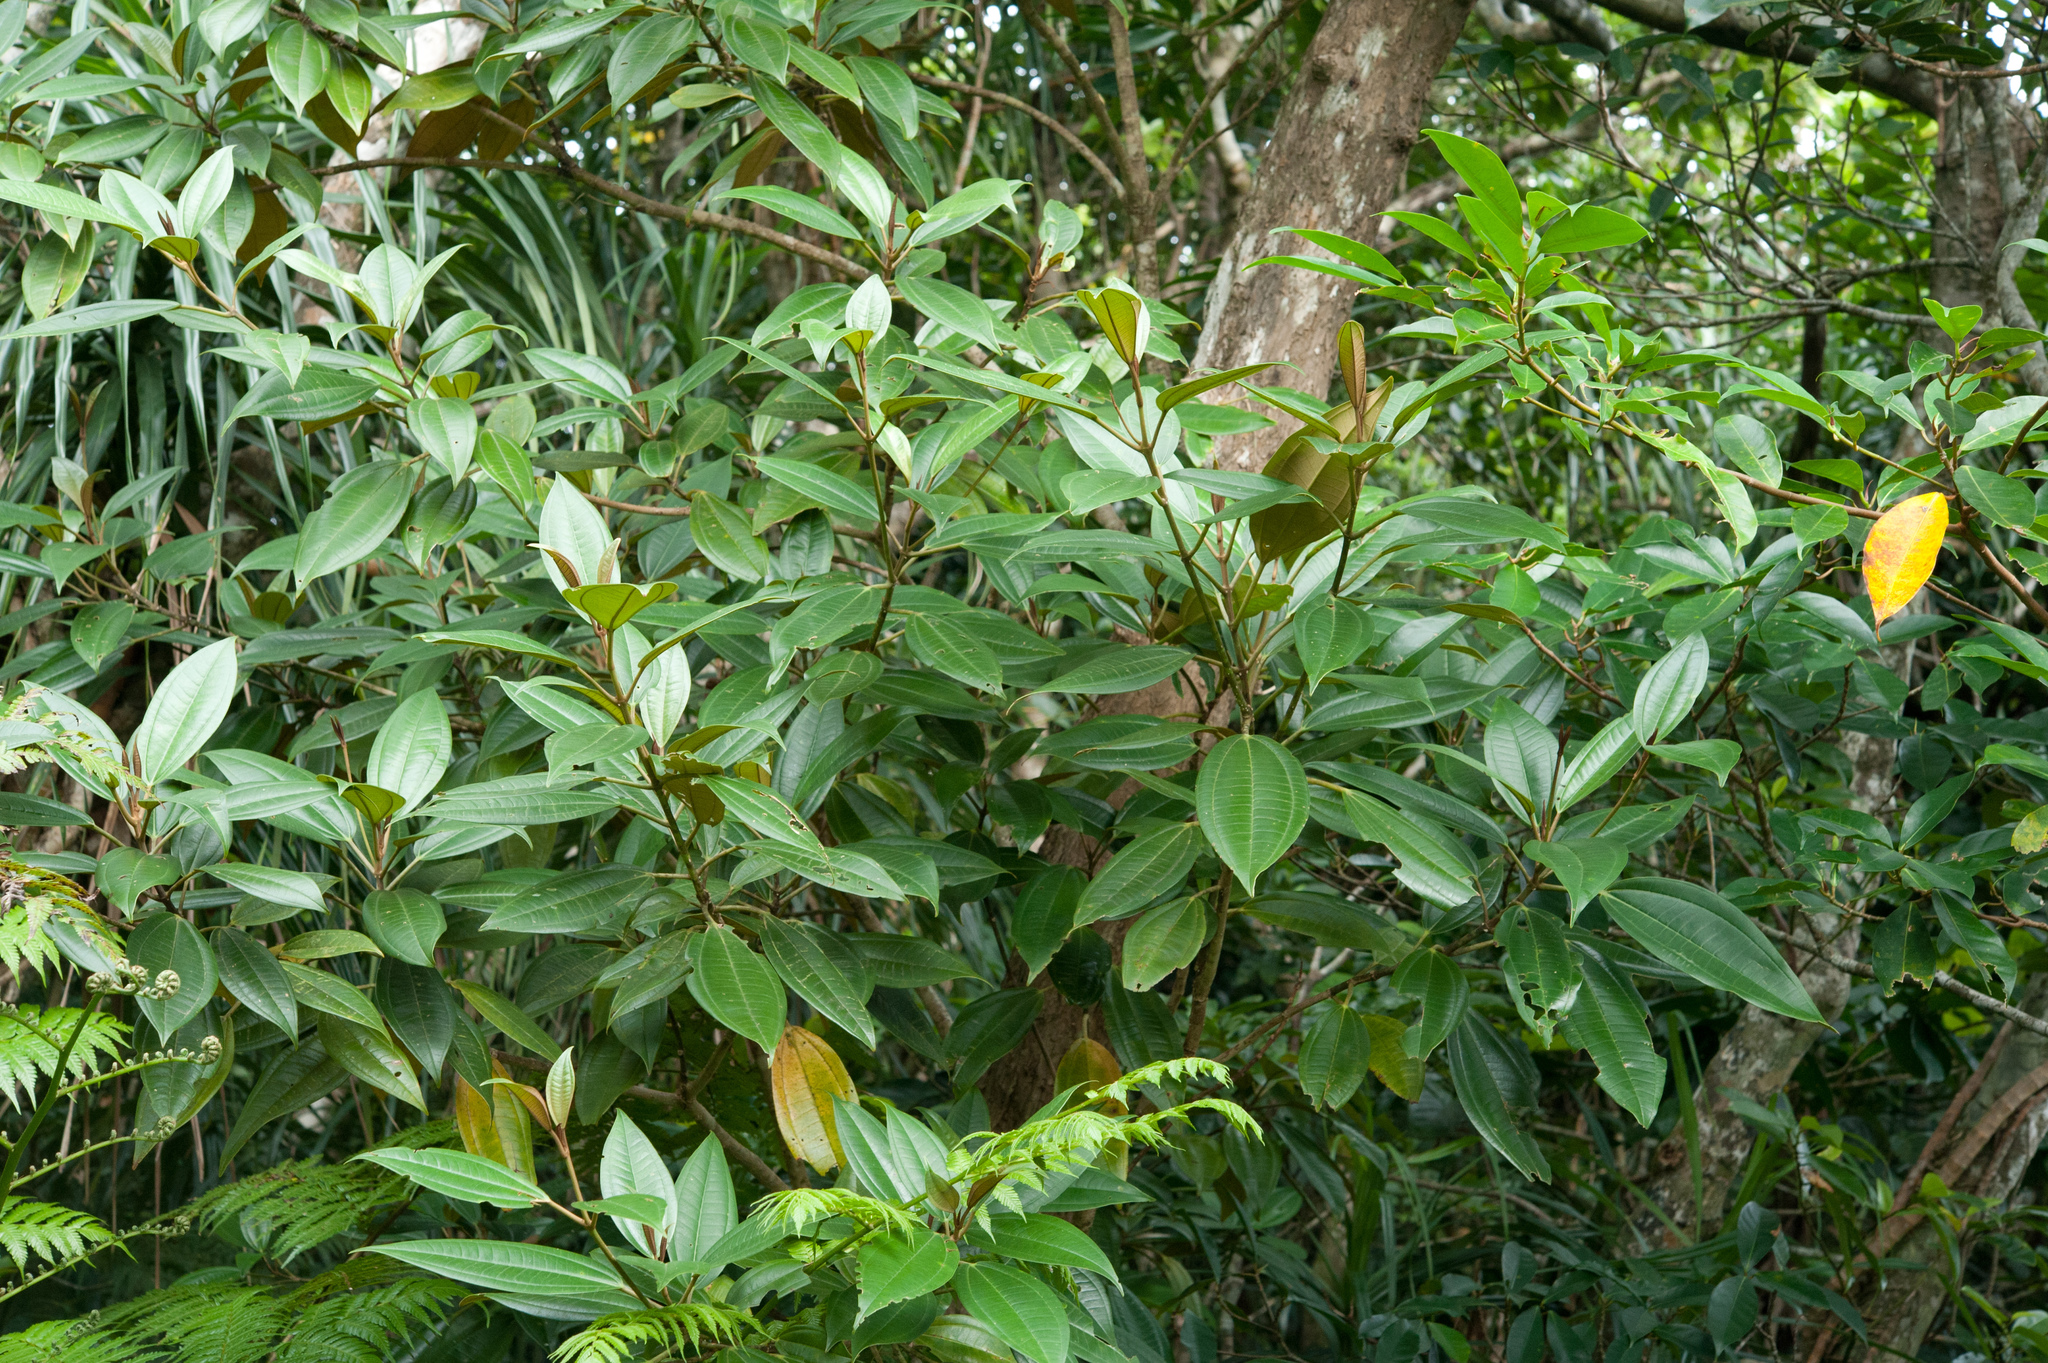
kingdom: Plantae
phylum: Tracheophyta
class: Magnoliopsida
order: Myrtales
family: Melastomataceae
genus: Astronia
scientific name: Astronia ferruginea
